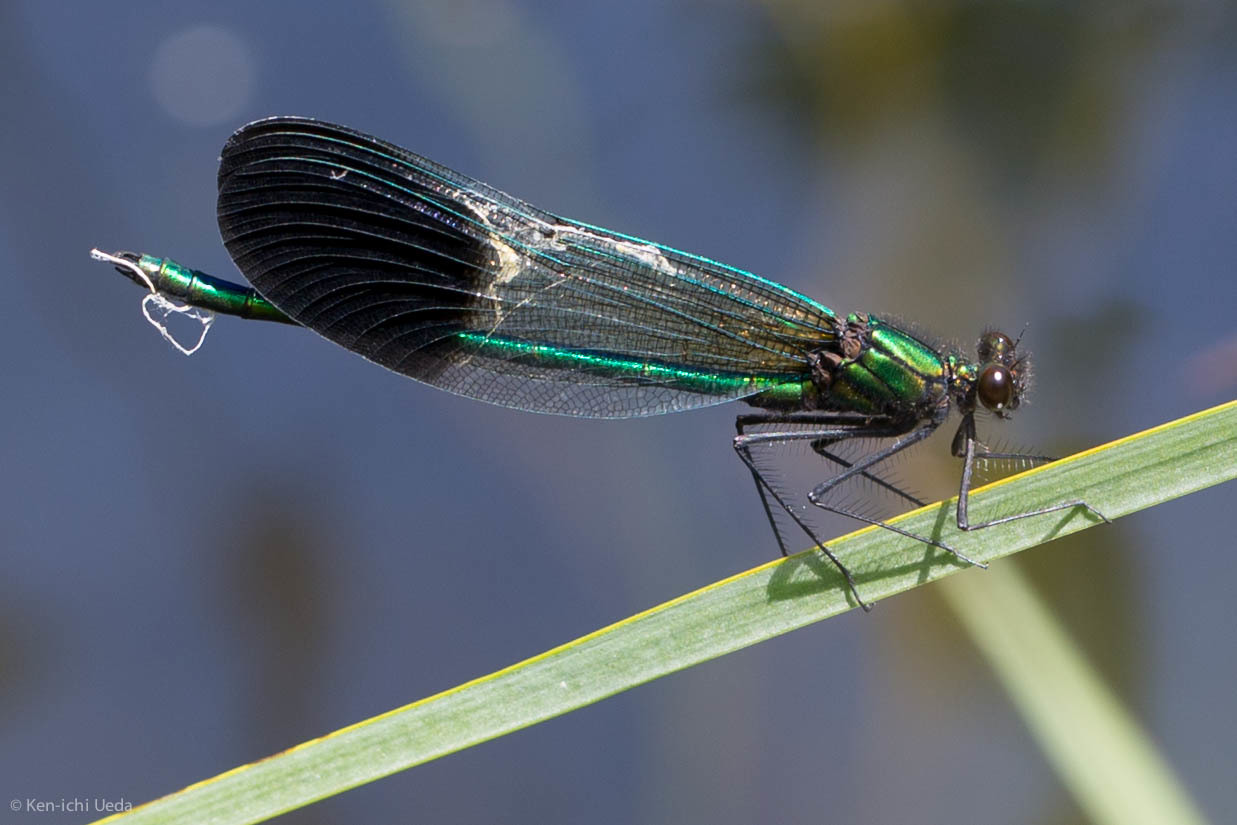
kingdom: Animalia
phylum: Arthropoda
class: Insecta
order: Odonata
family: Calopterygidae
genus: Calopteryx
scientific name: Calopteryx aequabilis
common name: River jewelwing
